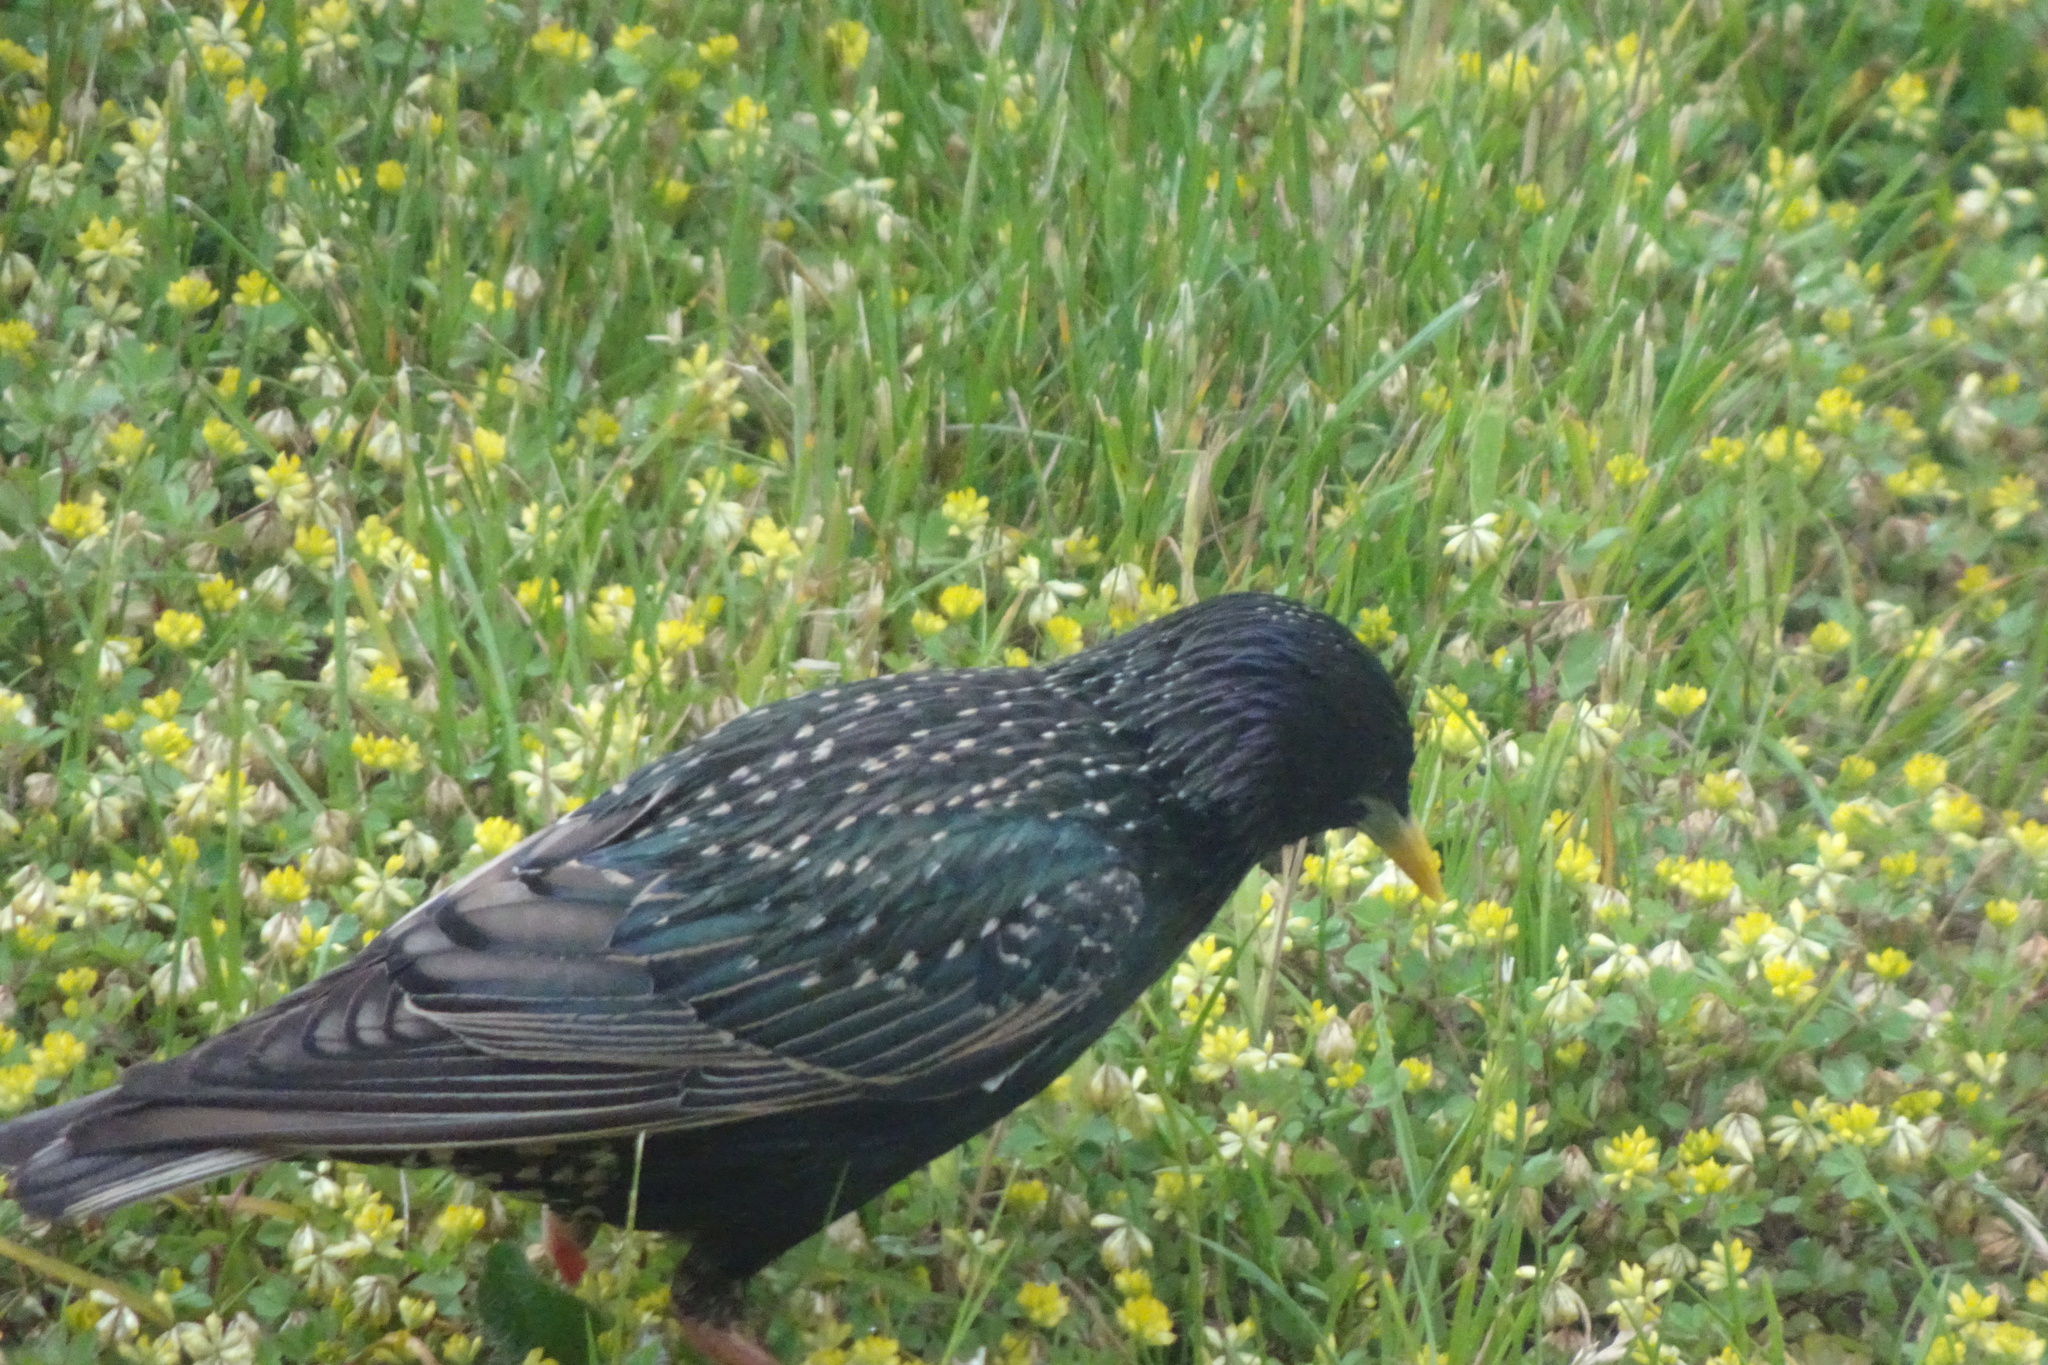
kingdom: Animalia
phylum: Chordata
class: Aves
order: Passeriformes
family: Sturnidae
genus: Sturnus
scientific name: Sturnus vulgaris
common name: Common starling
